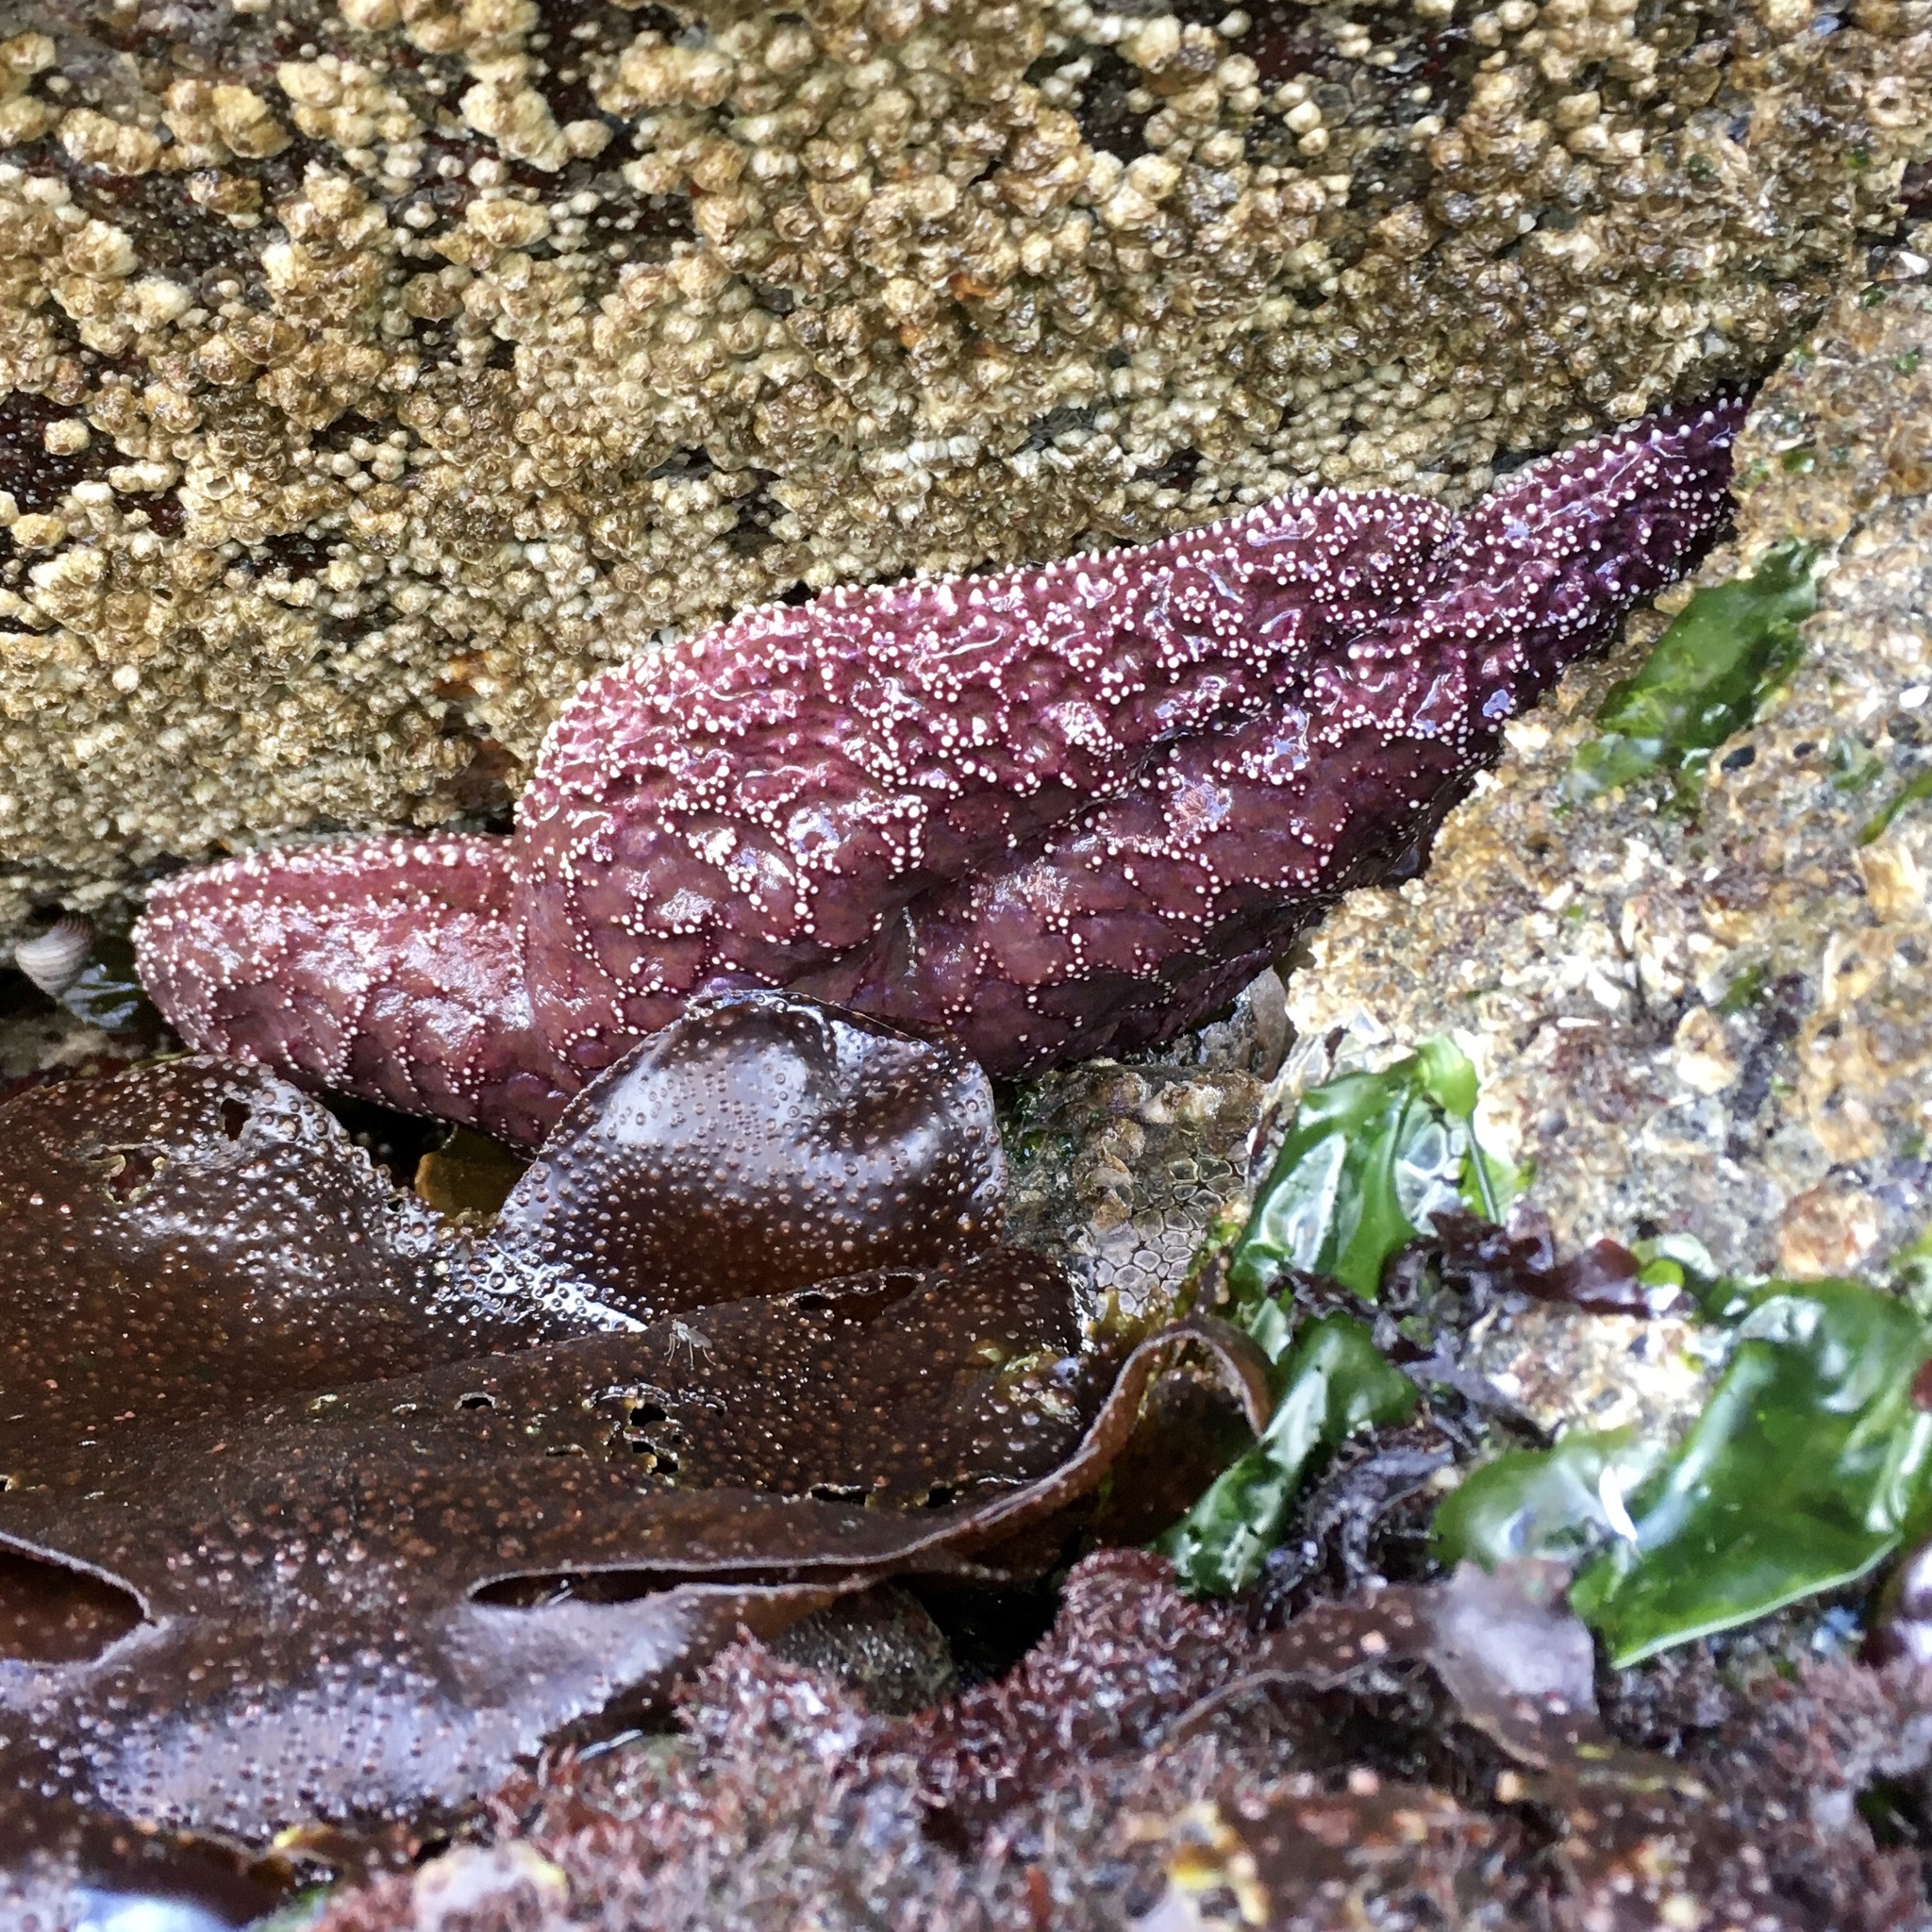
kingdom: Animalia
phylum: Echinodermata
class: Asteroidea
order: Forcipulatida
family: Asteriidae
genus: Pisaster
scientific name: Pisaster ochraceus
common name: Ochre stars
